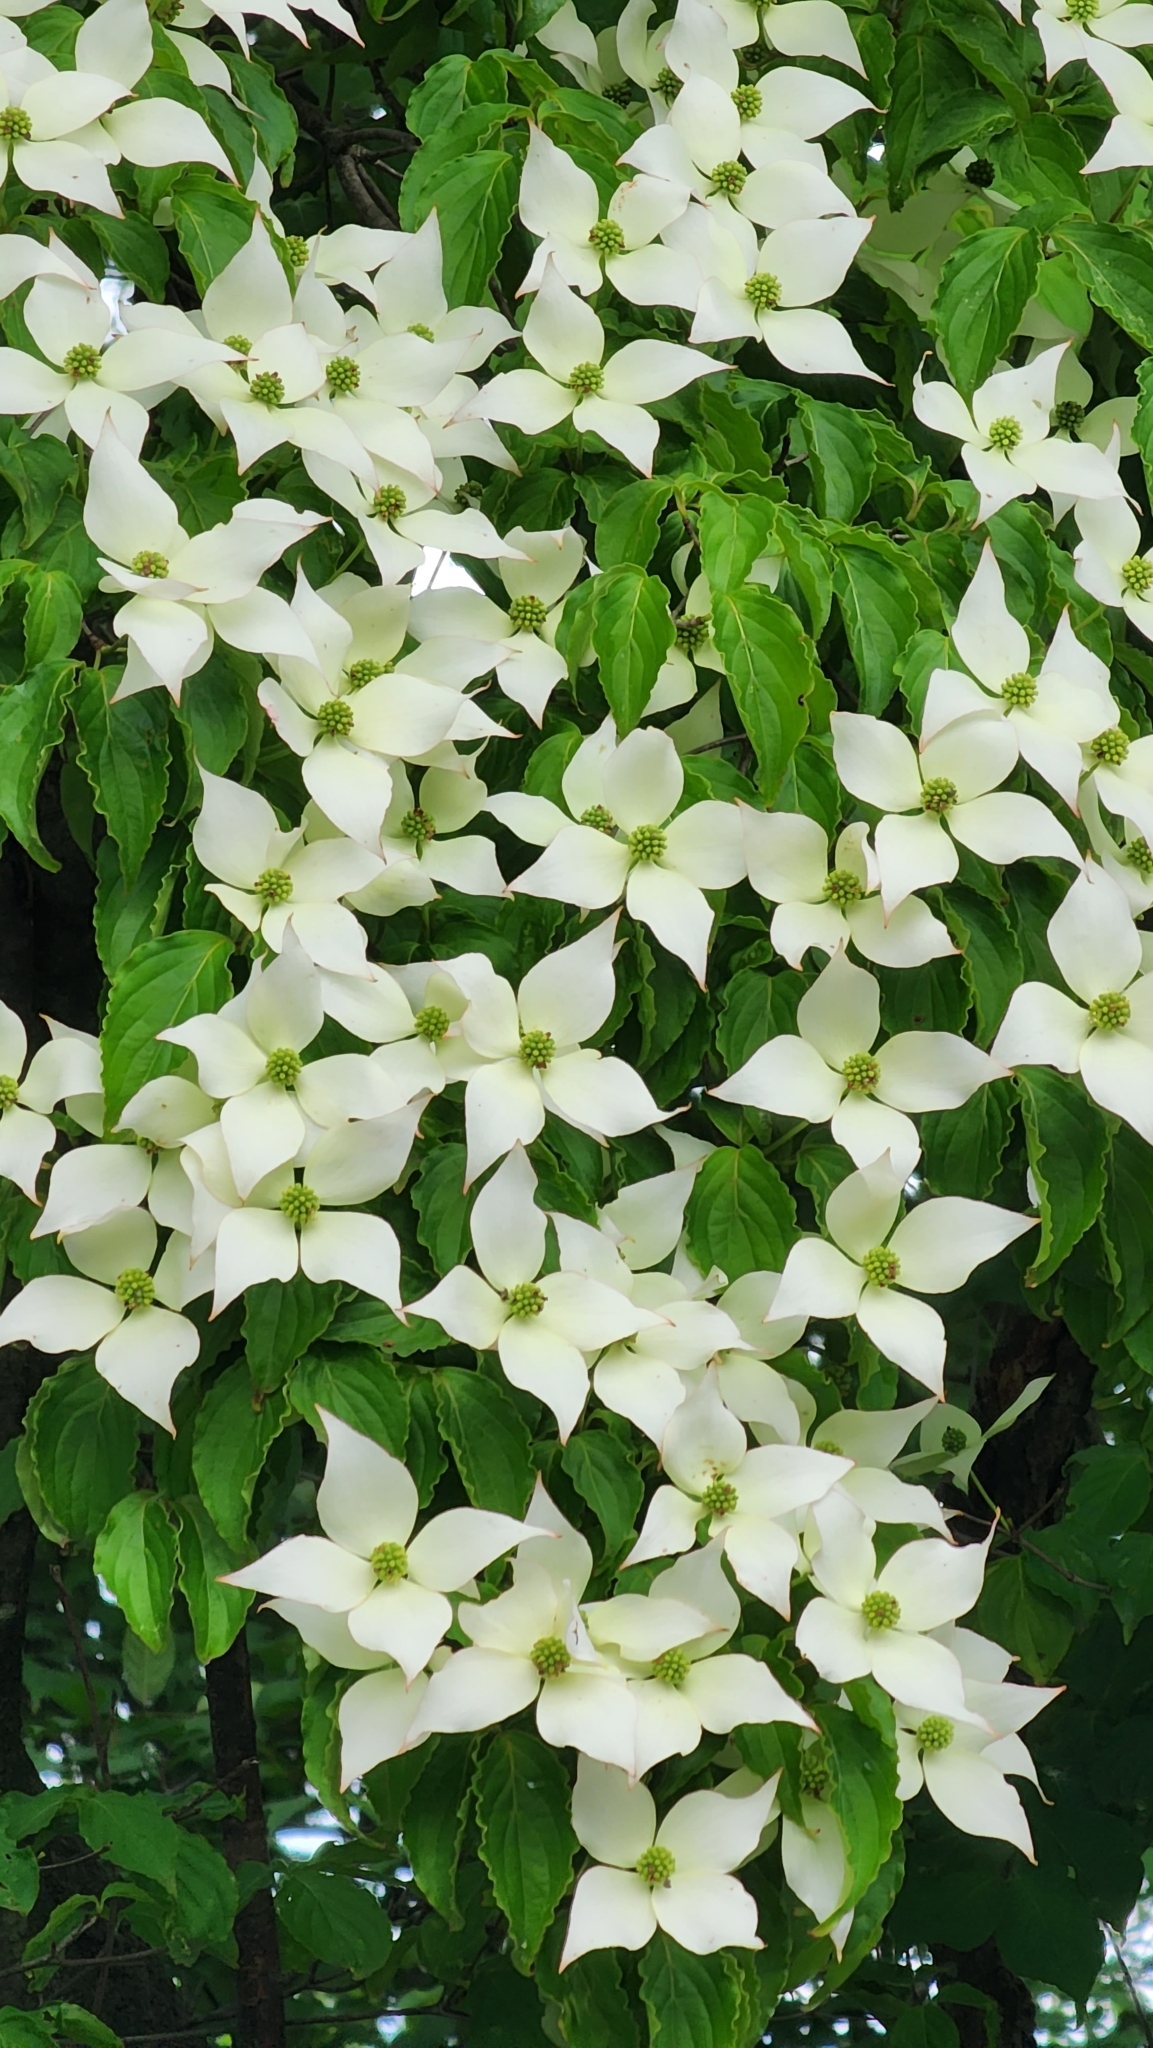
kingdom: Plantae
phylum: Tracheophyta
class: Magnoliopsida
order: Cornales
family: Cornaceae
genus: Cornus
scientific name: Cornus kousa
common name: Japanese dogwood
